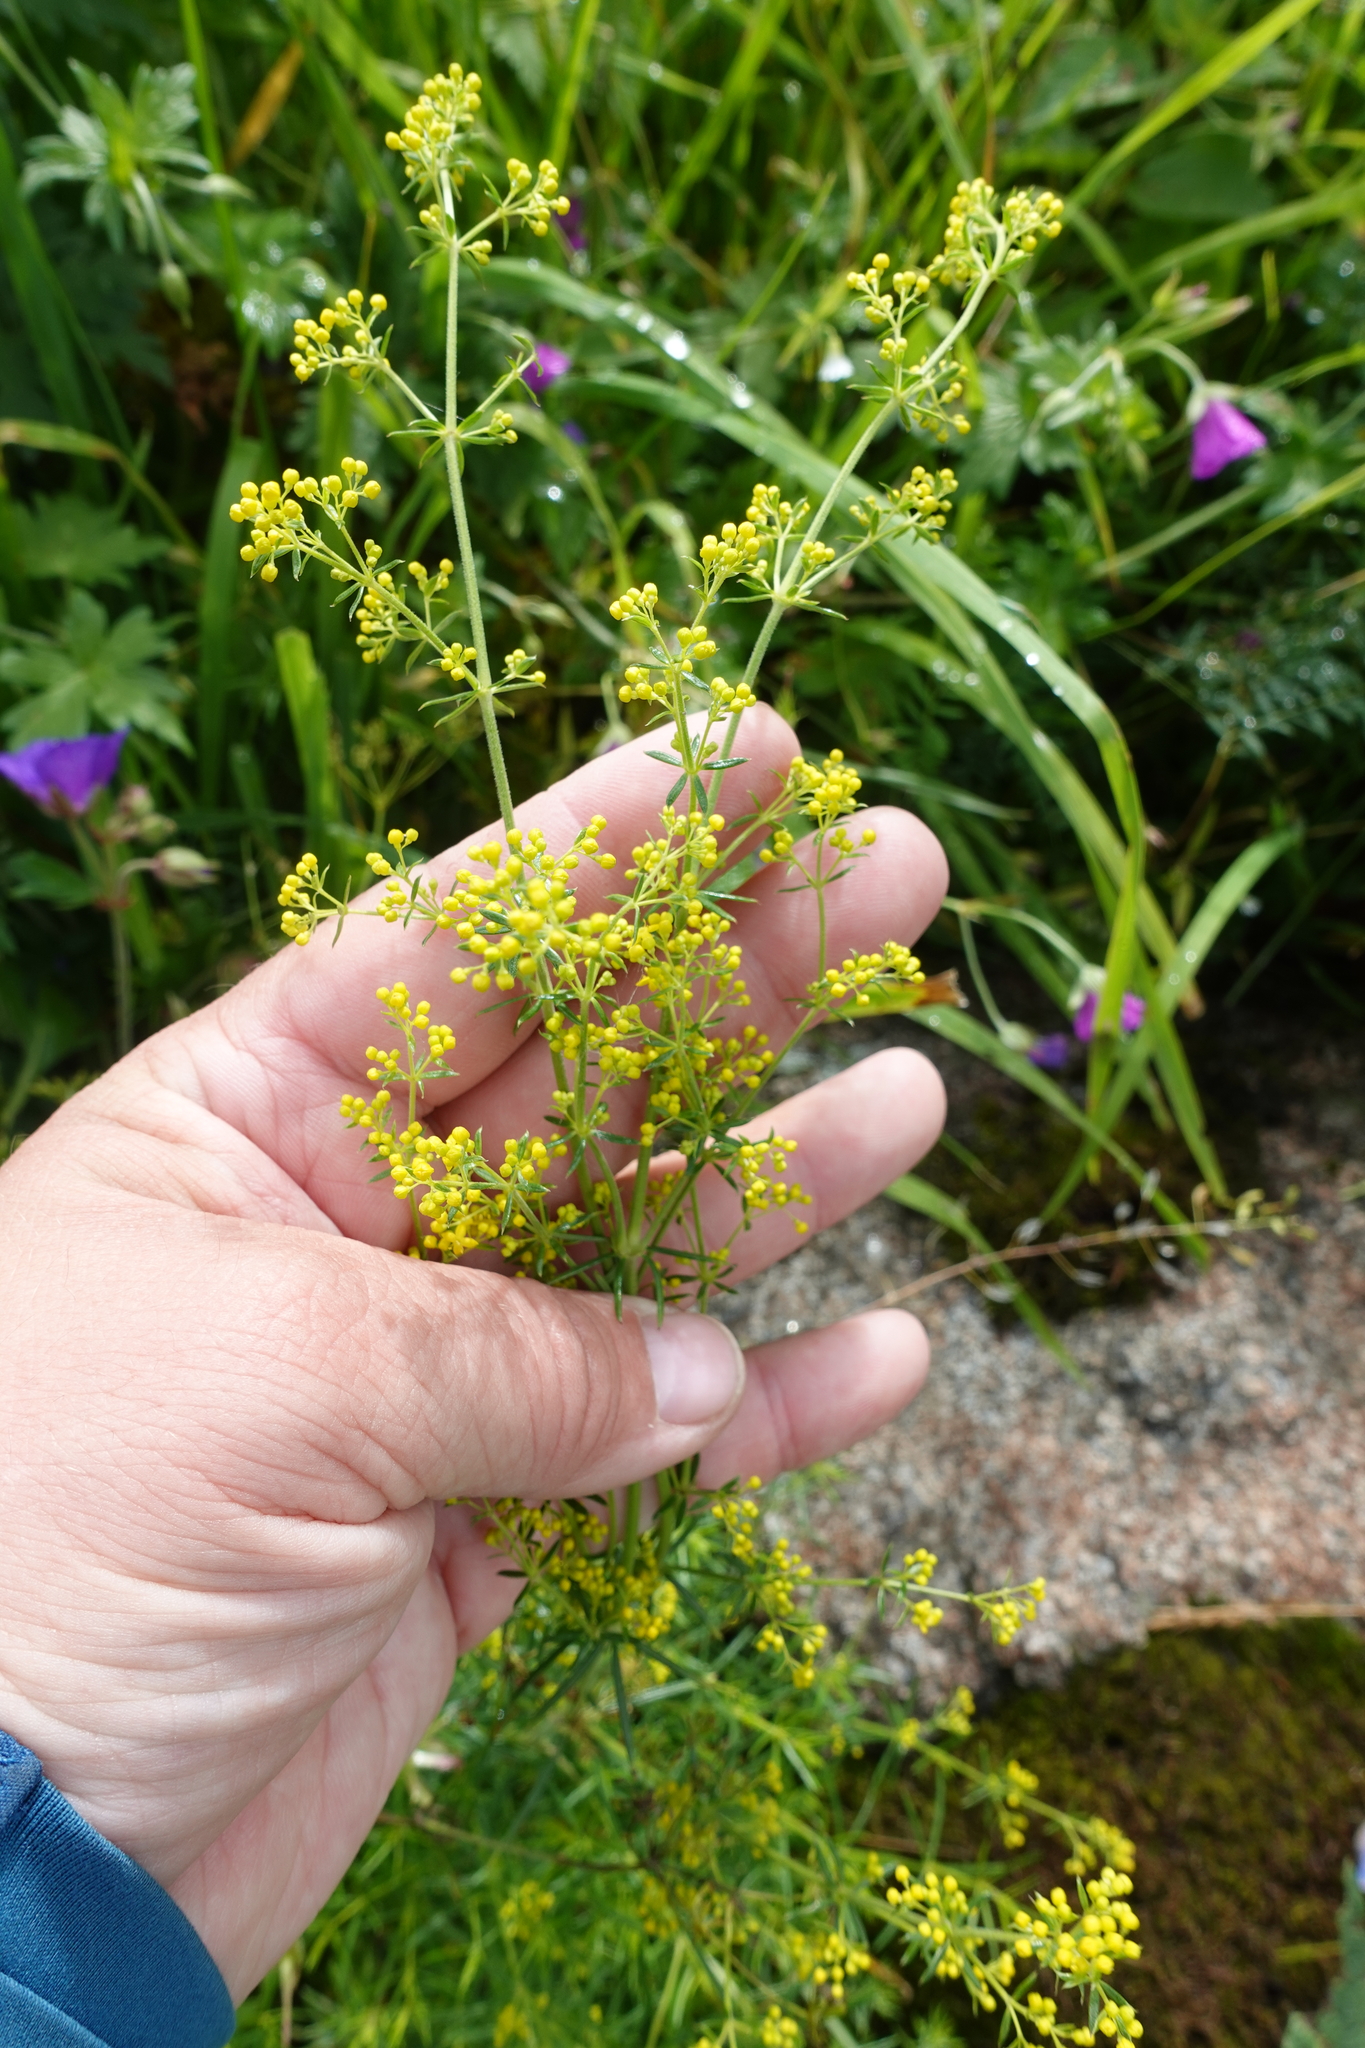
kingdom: Plantae
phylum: Tracheophyta
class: Magnoliopsida
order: Gentianales
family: Rubiaceae
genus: Galium
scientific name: Galium verum
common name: Lady's bedstraw
